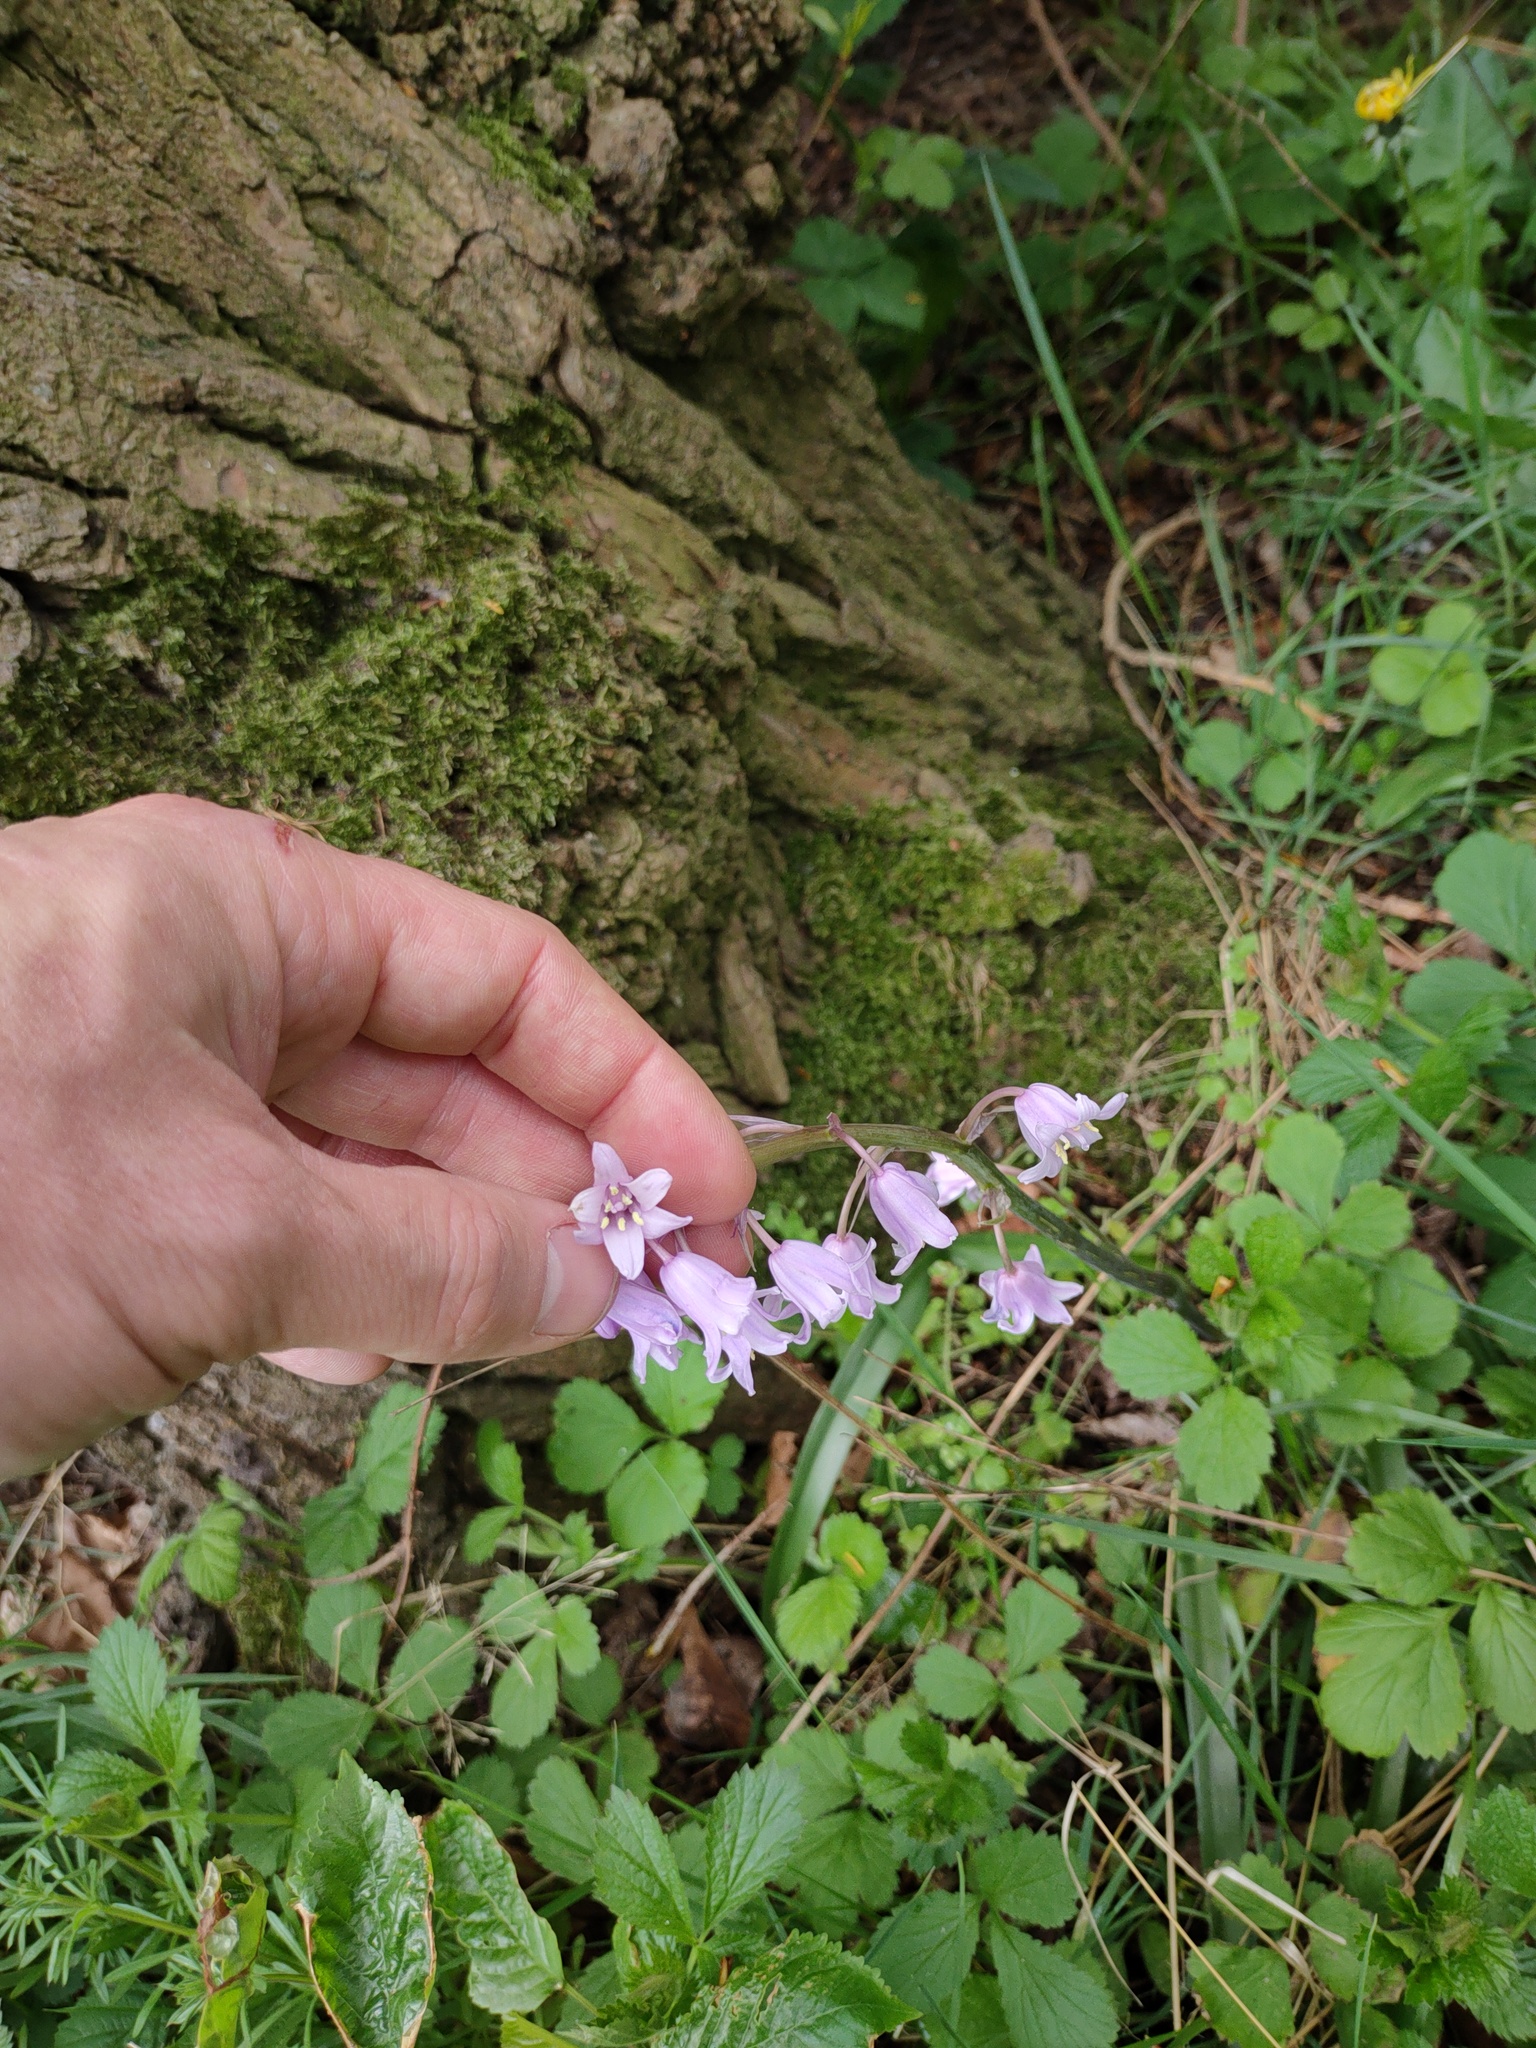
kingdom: Plantae
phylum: Tracheophyta
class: Liliopsida
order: Asparagales
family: Asparagaceae
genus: Hyacinthoides
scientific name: Hyacinthoides massartiana
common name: Hyacinthoides
